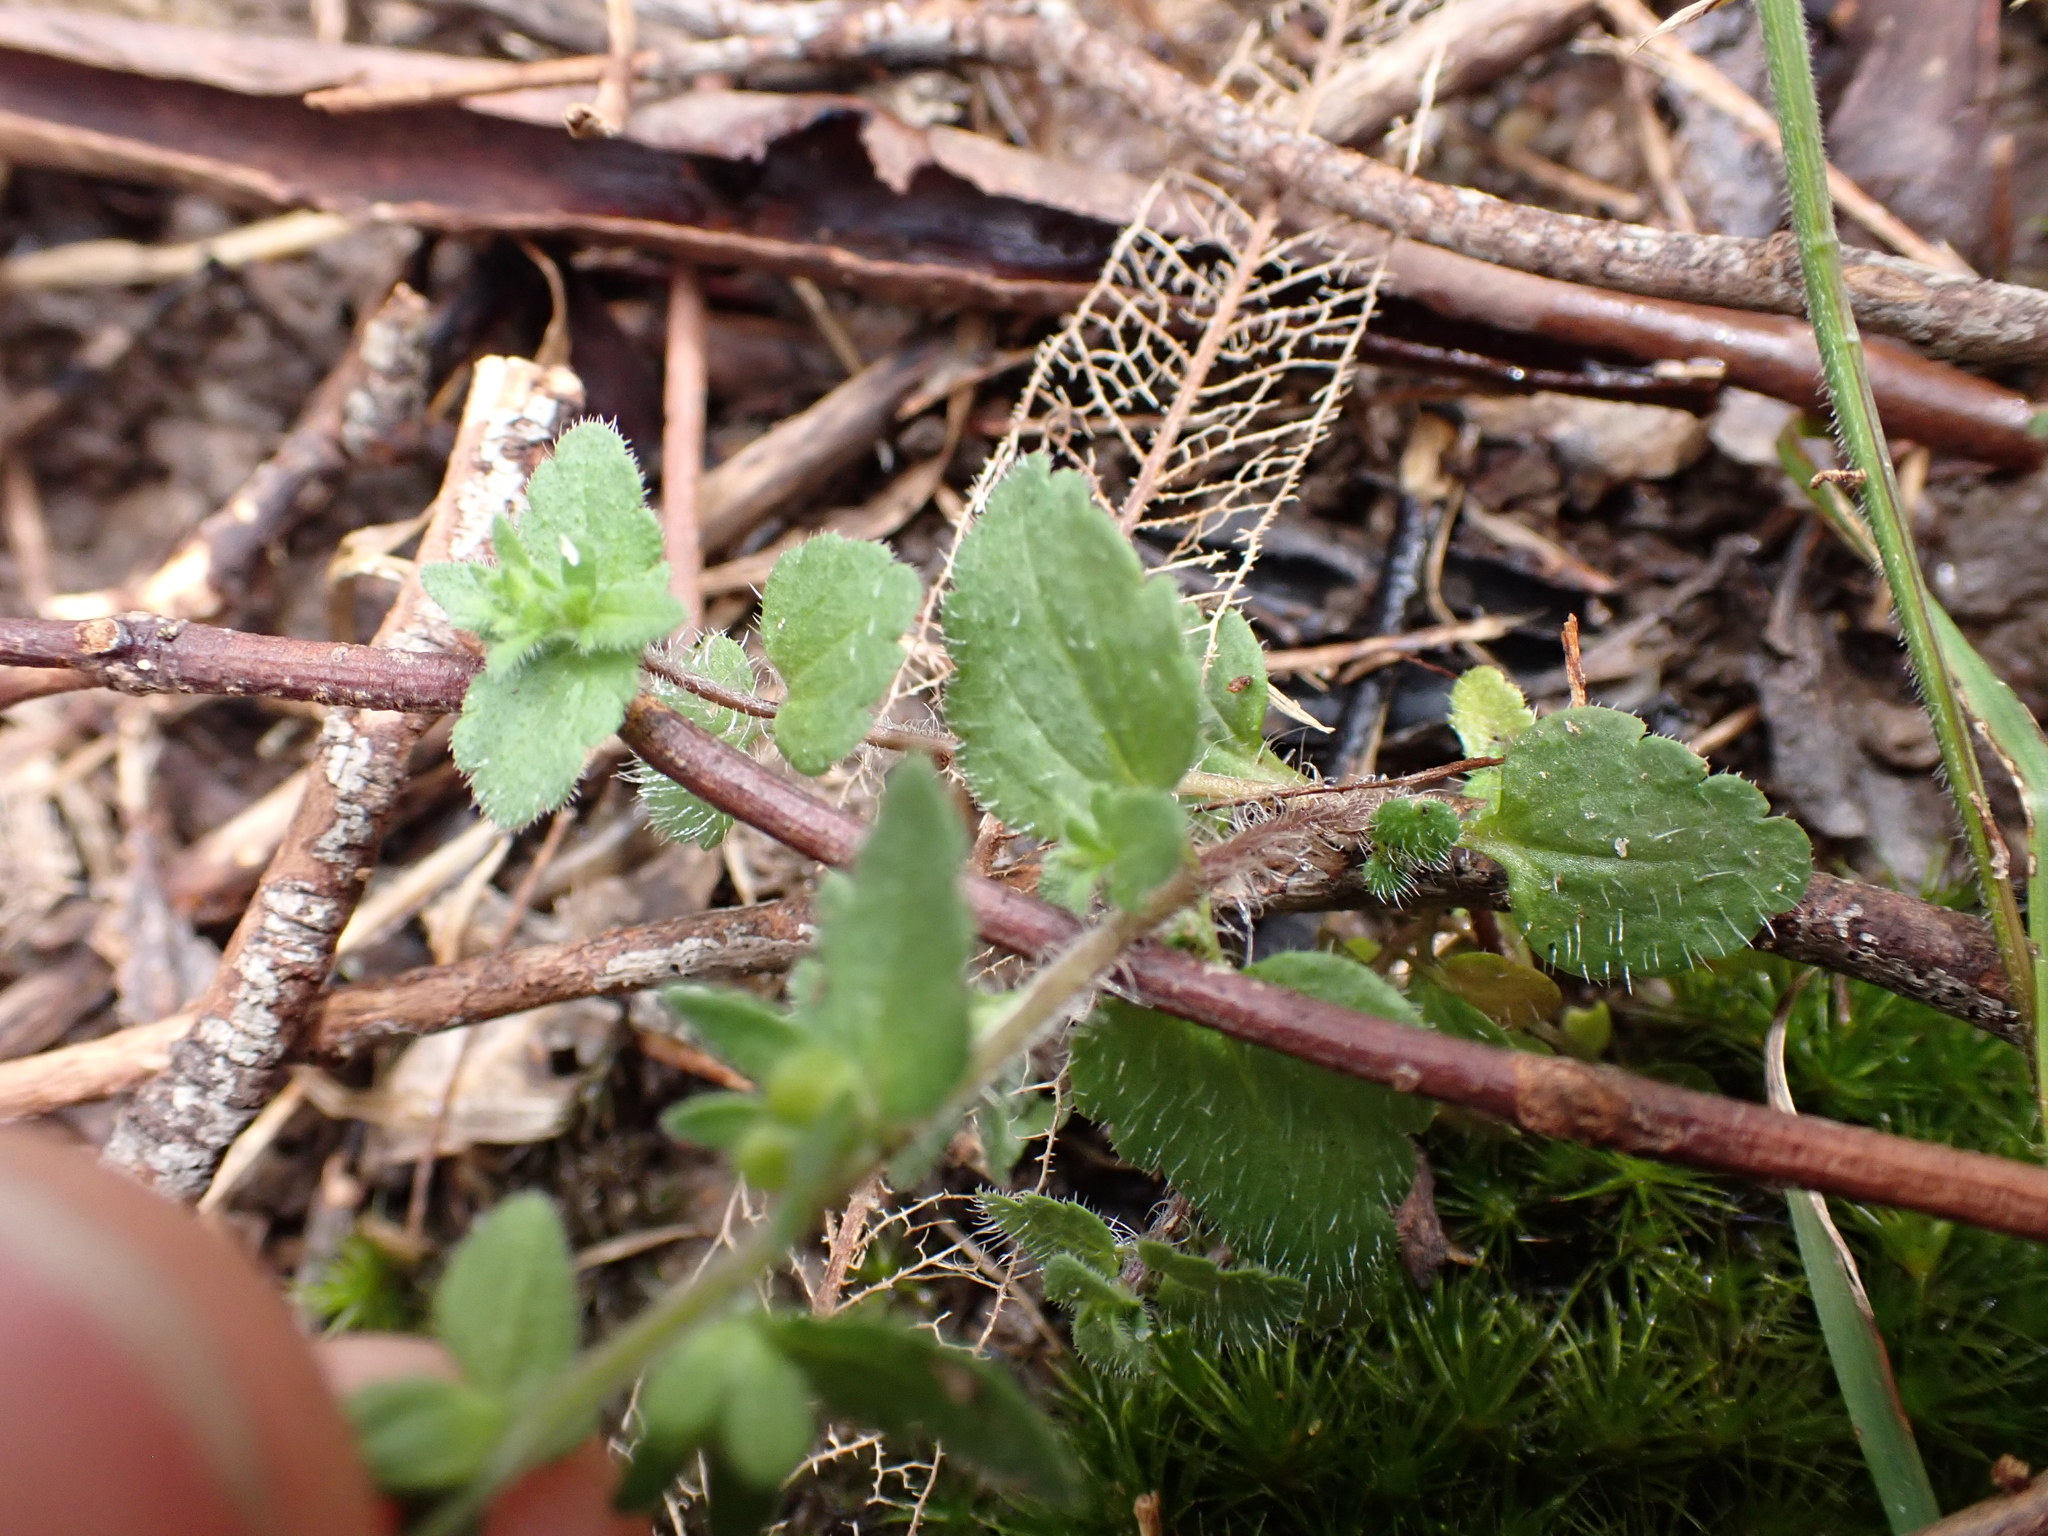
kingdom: Plantae
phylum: Tracheophyta
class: Magnoliopsida
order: Lamiales
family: Plantaginaceae
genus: Veronica
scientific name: Veronica arvensis
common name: Corn speedwell
